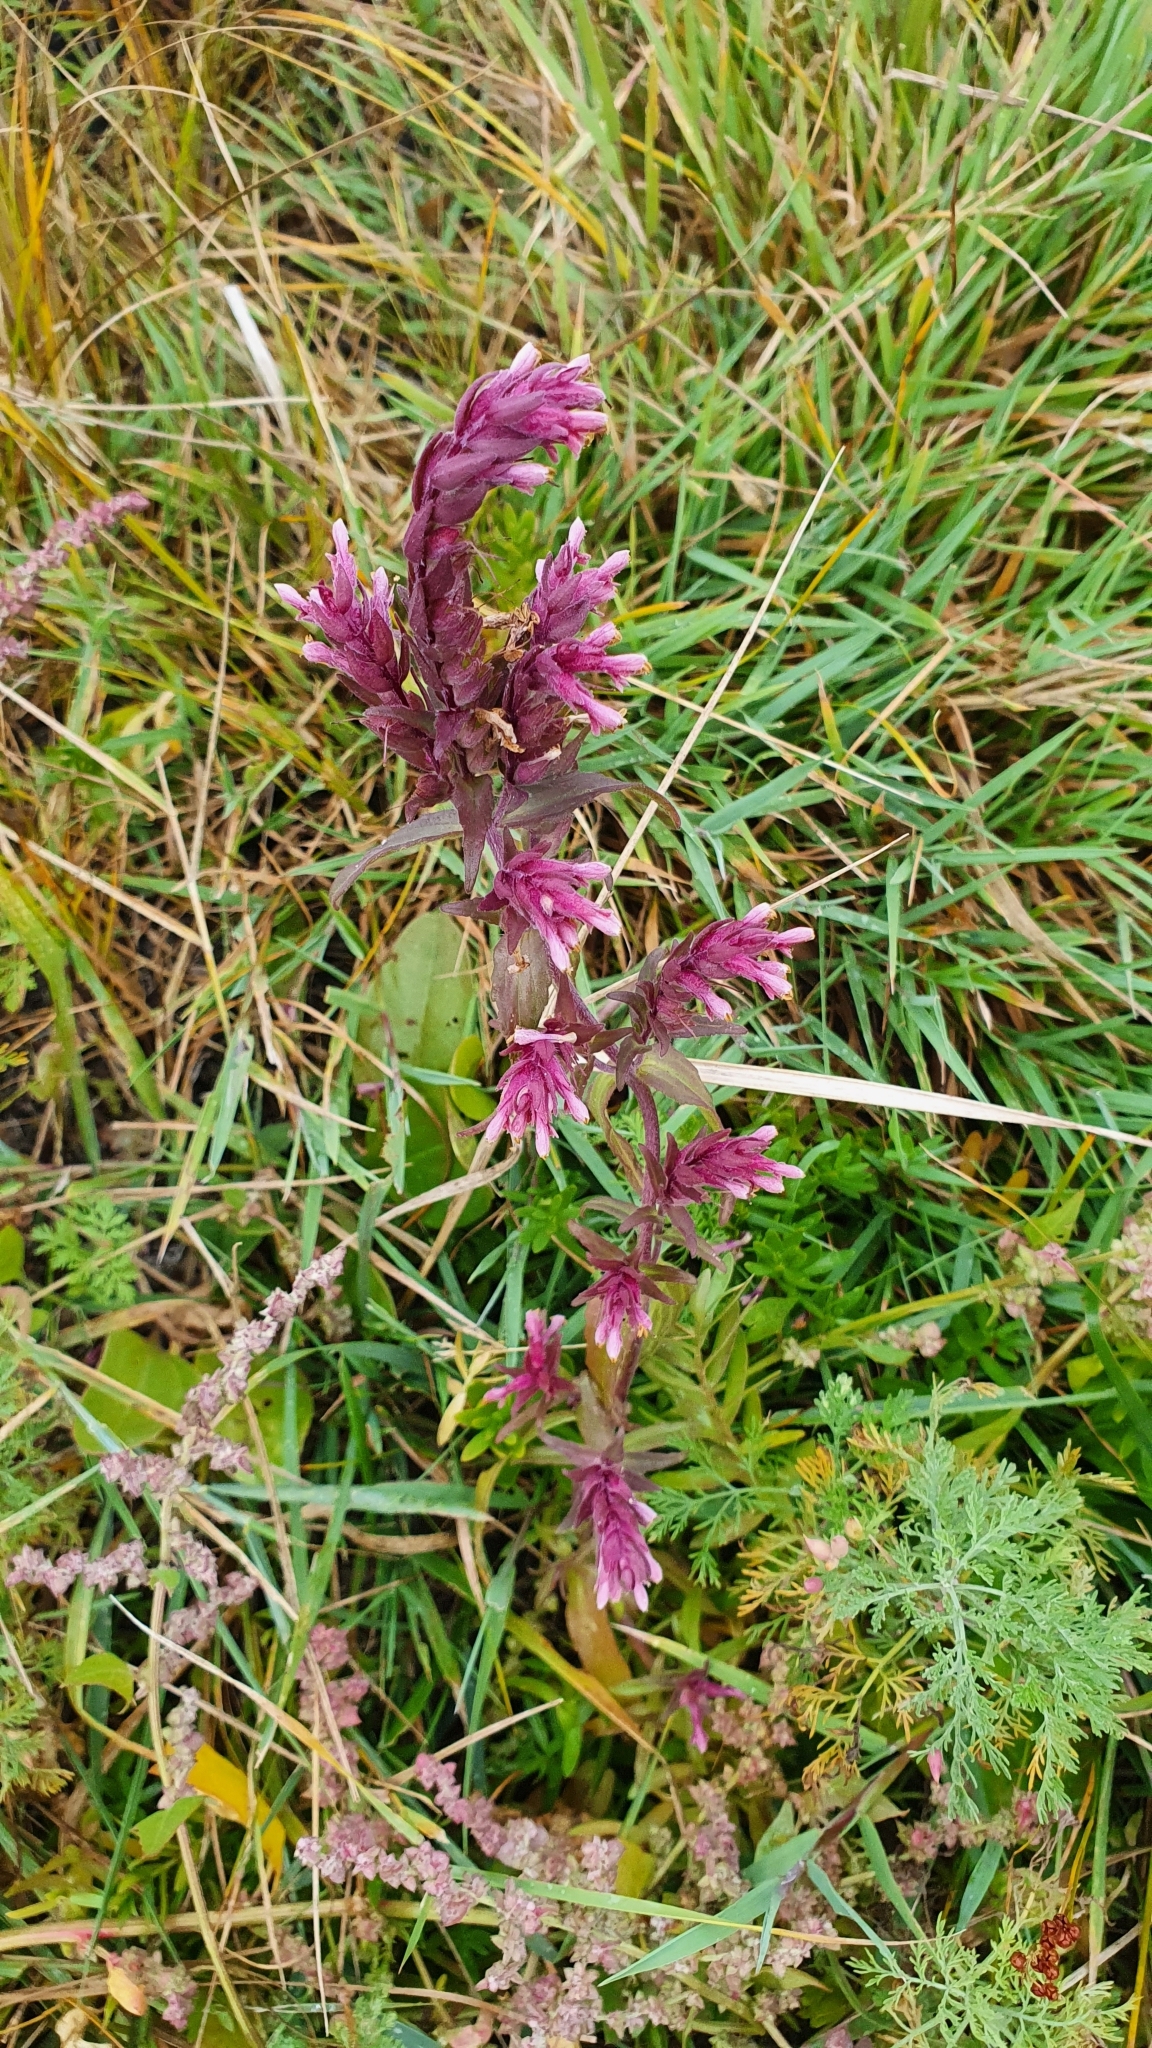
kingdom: Plantae
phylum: Tracheophyta
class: Magnoliopsida
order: Lamiales
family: Orobanchaceae
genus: Odontites
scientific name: Odontites vulgaris
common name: Broomrape
